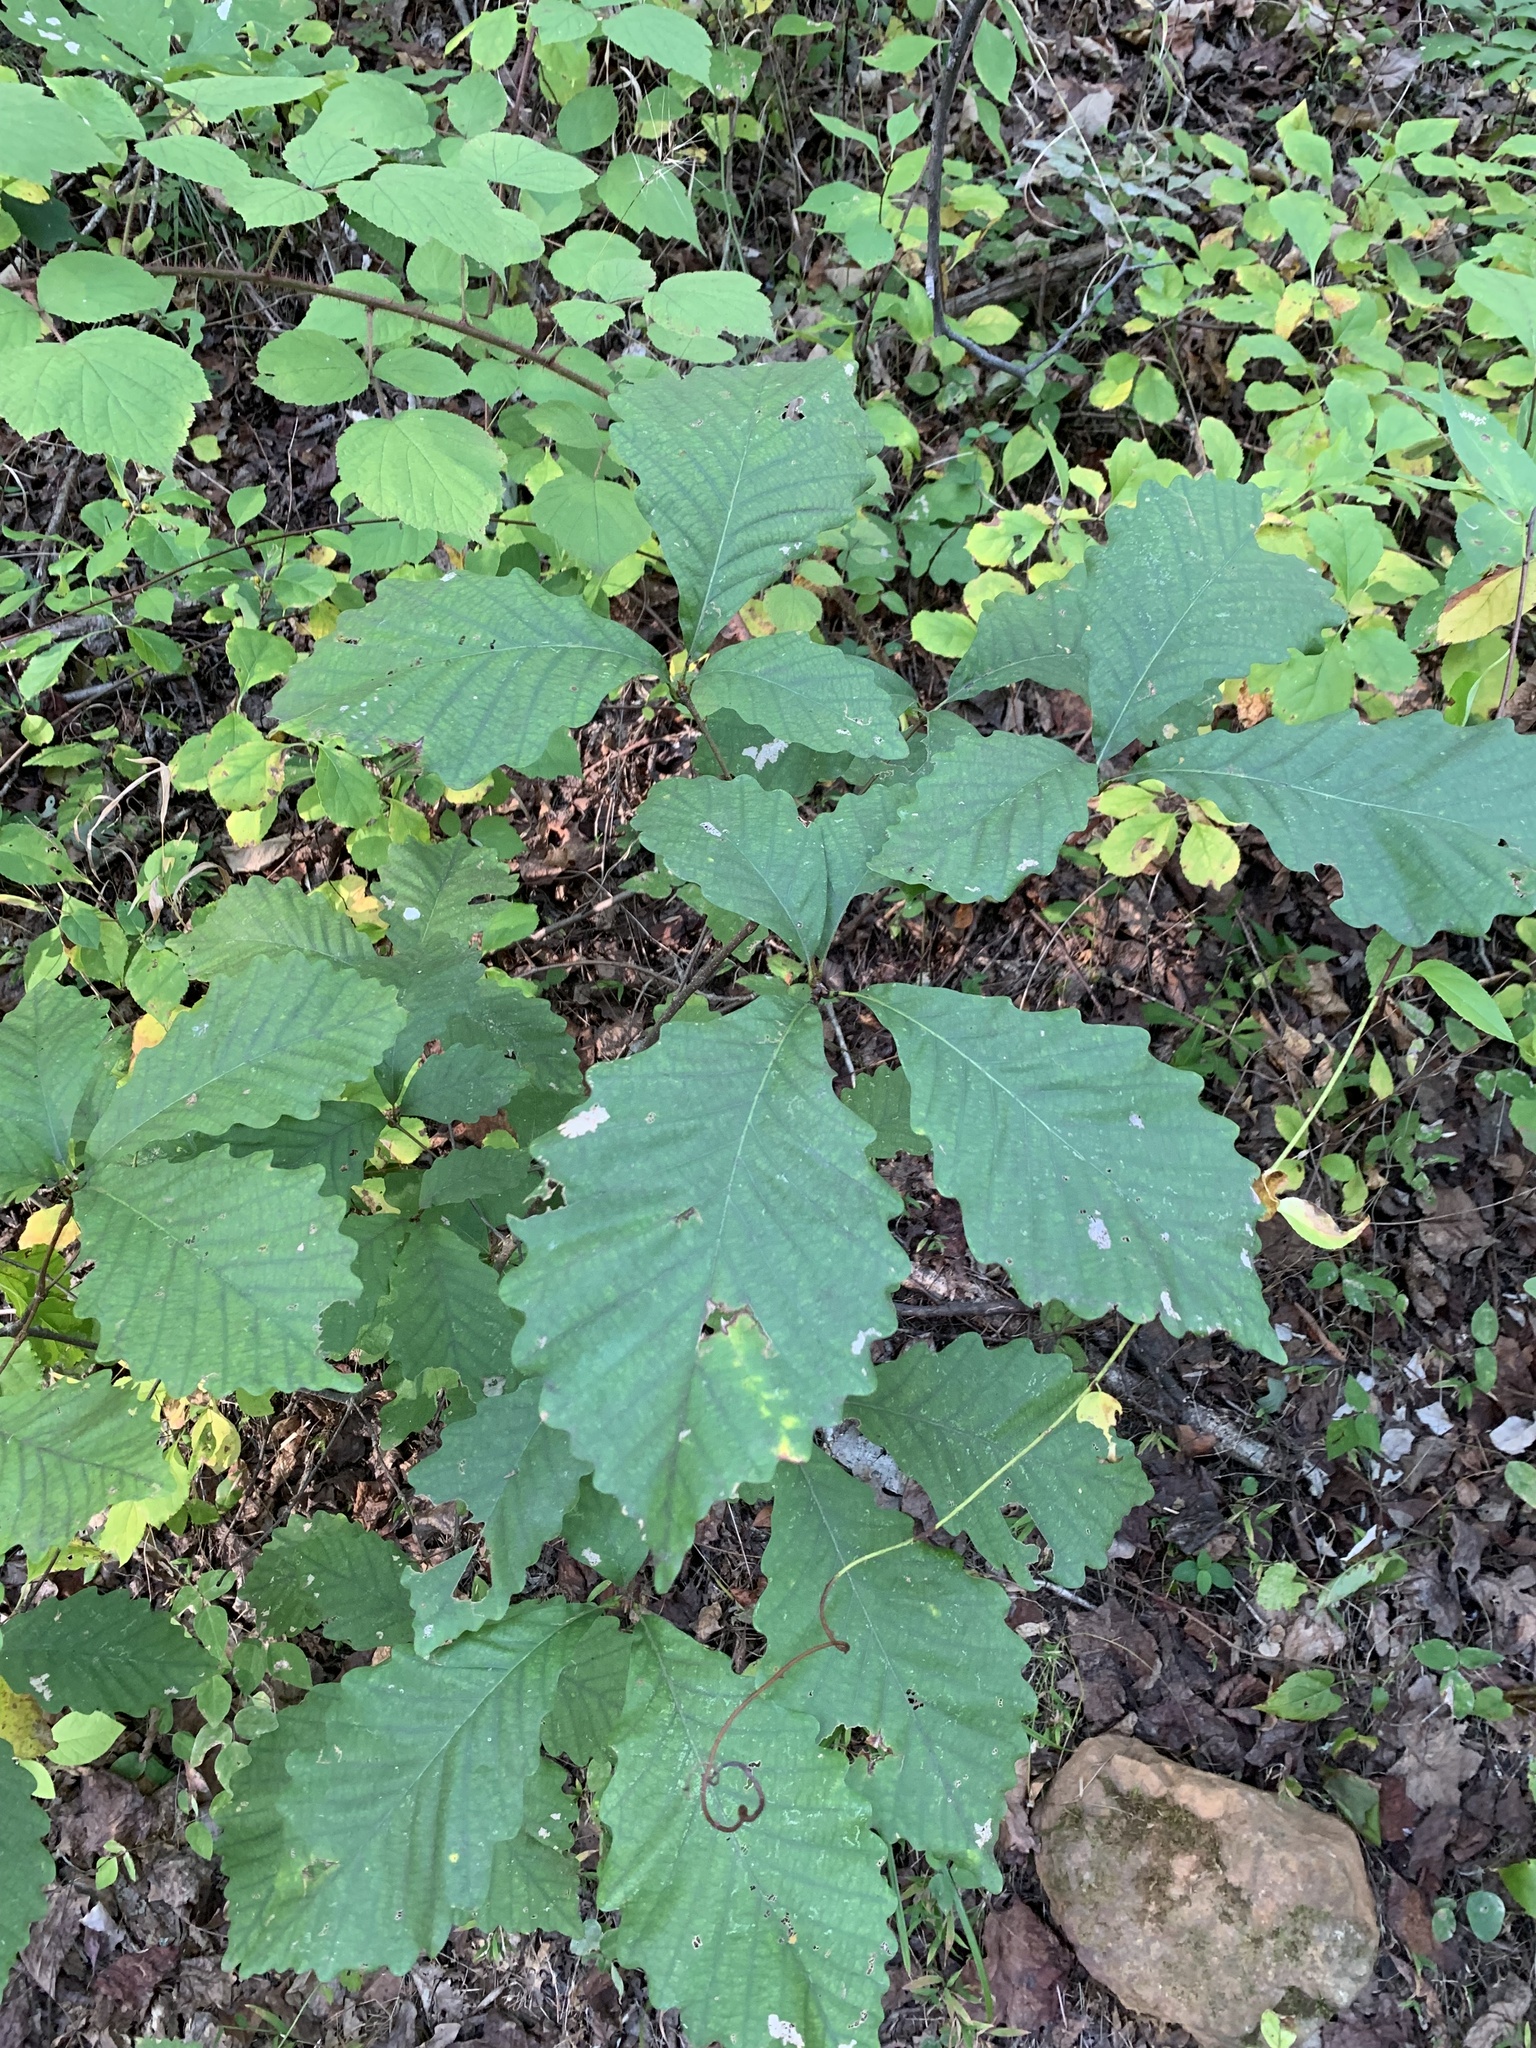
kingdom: Plantae
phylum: Tracheophyta
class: Magnoliopsida
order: Fagales
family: Fagaceae
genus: Quercus
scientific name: Quercus montana
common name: Chestnut oak
